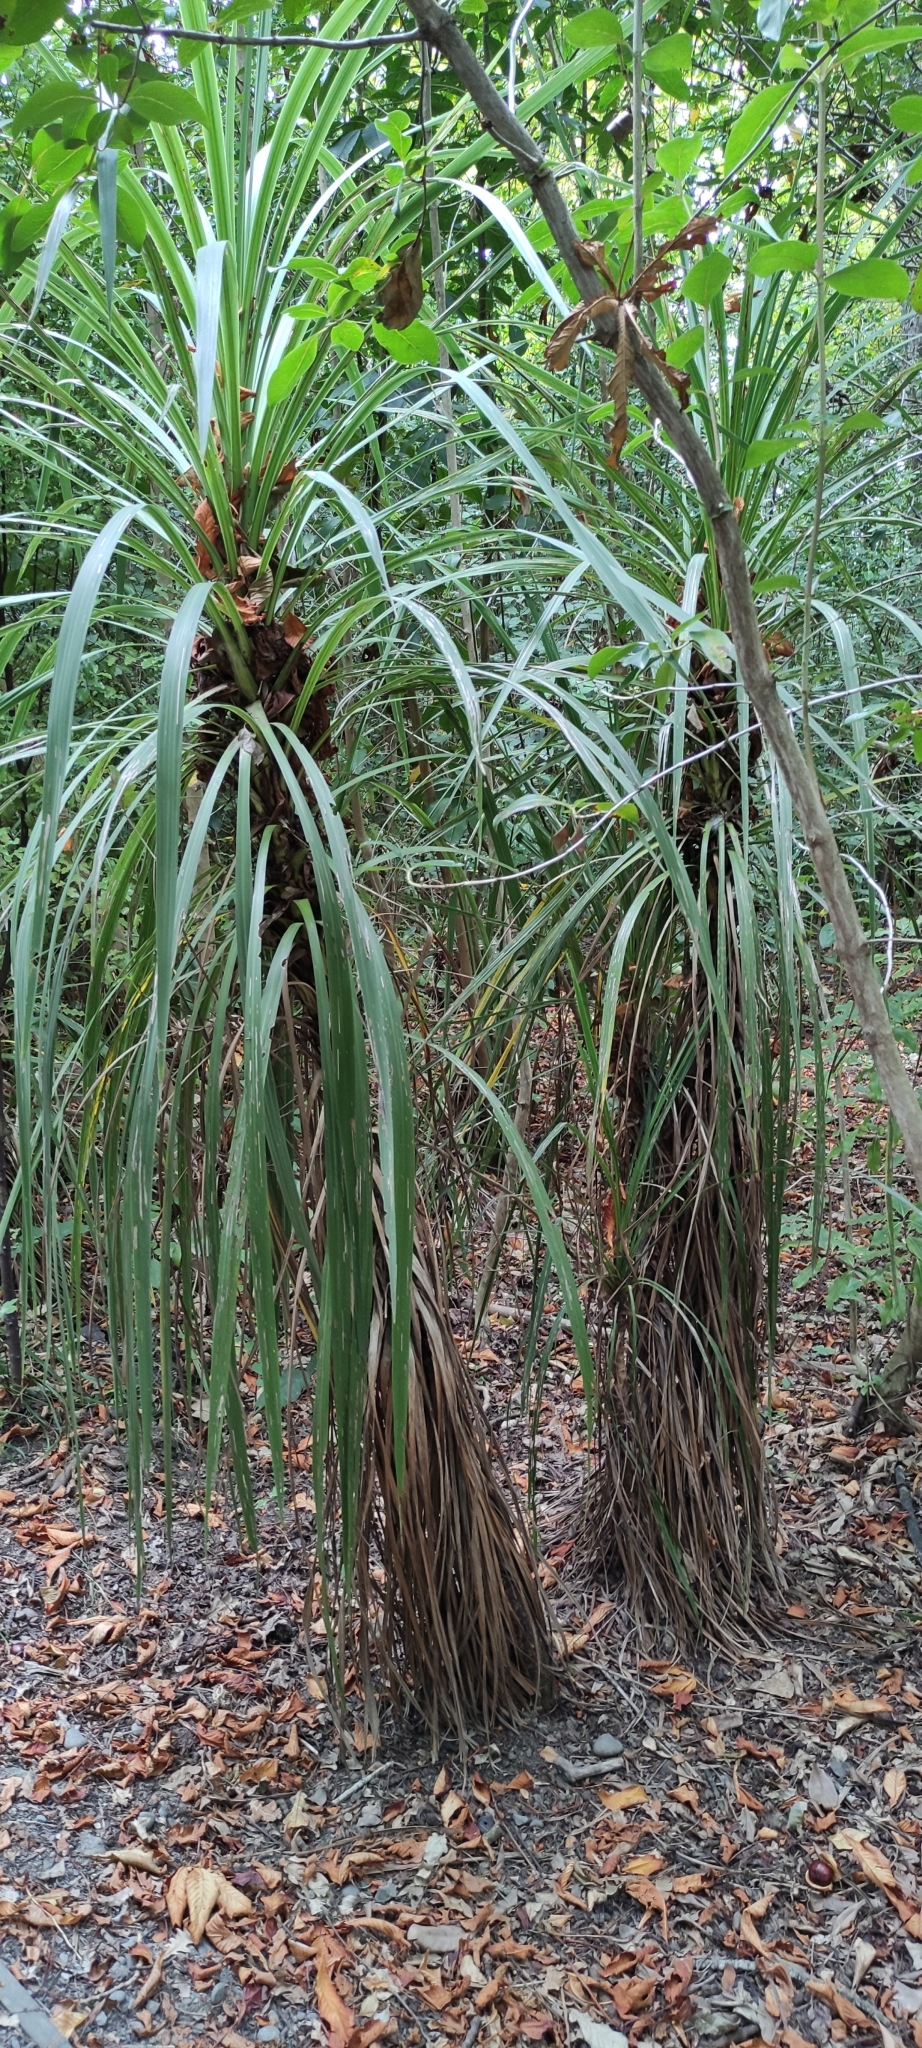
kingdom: Plantae
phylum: Tracheophyta
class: Liliopsida
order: Asparagales
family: Asparagaceae
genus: Cordyline
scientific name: Cordyline australis
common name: Cabbage-palm
